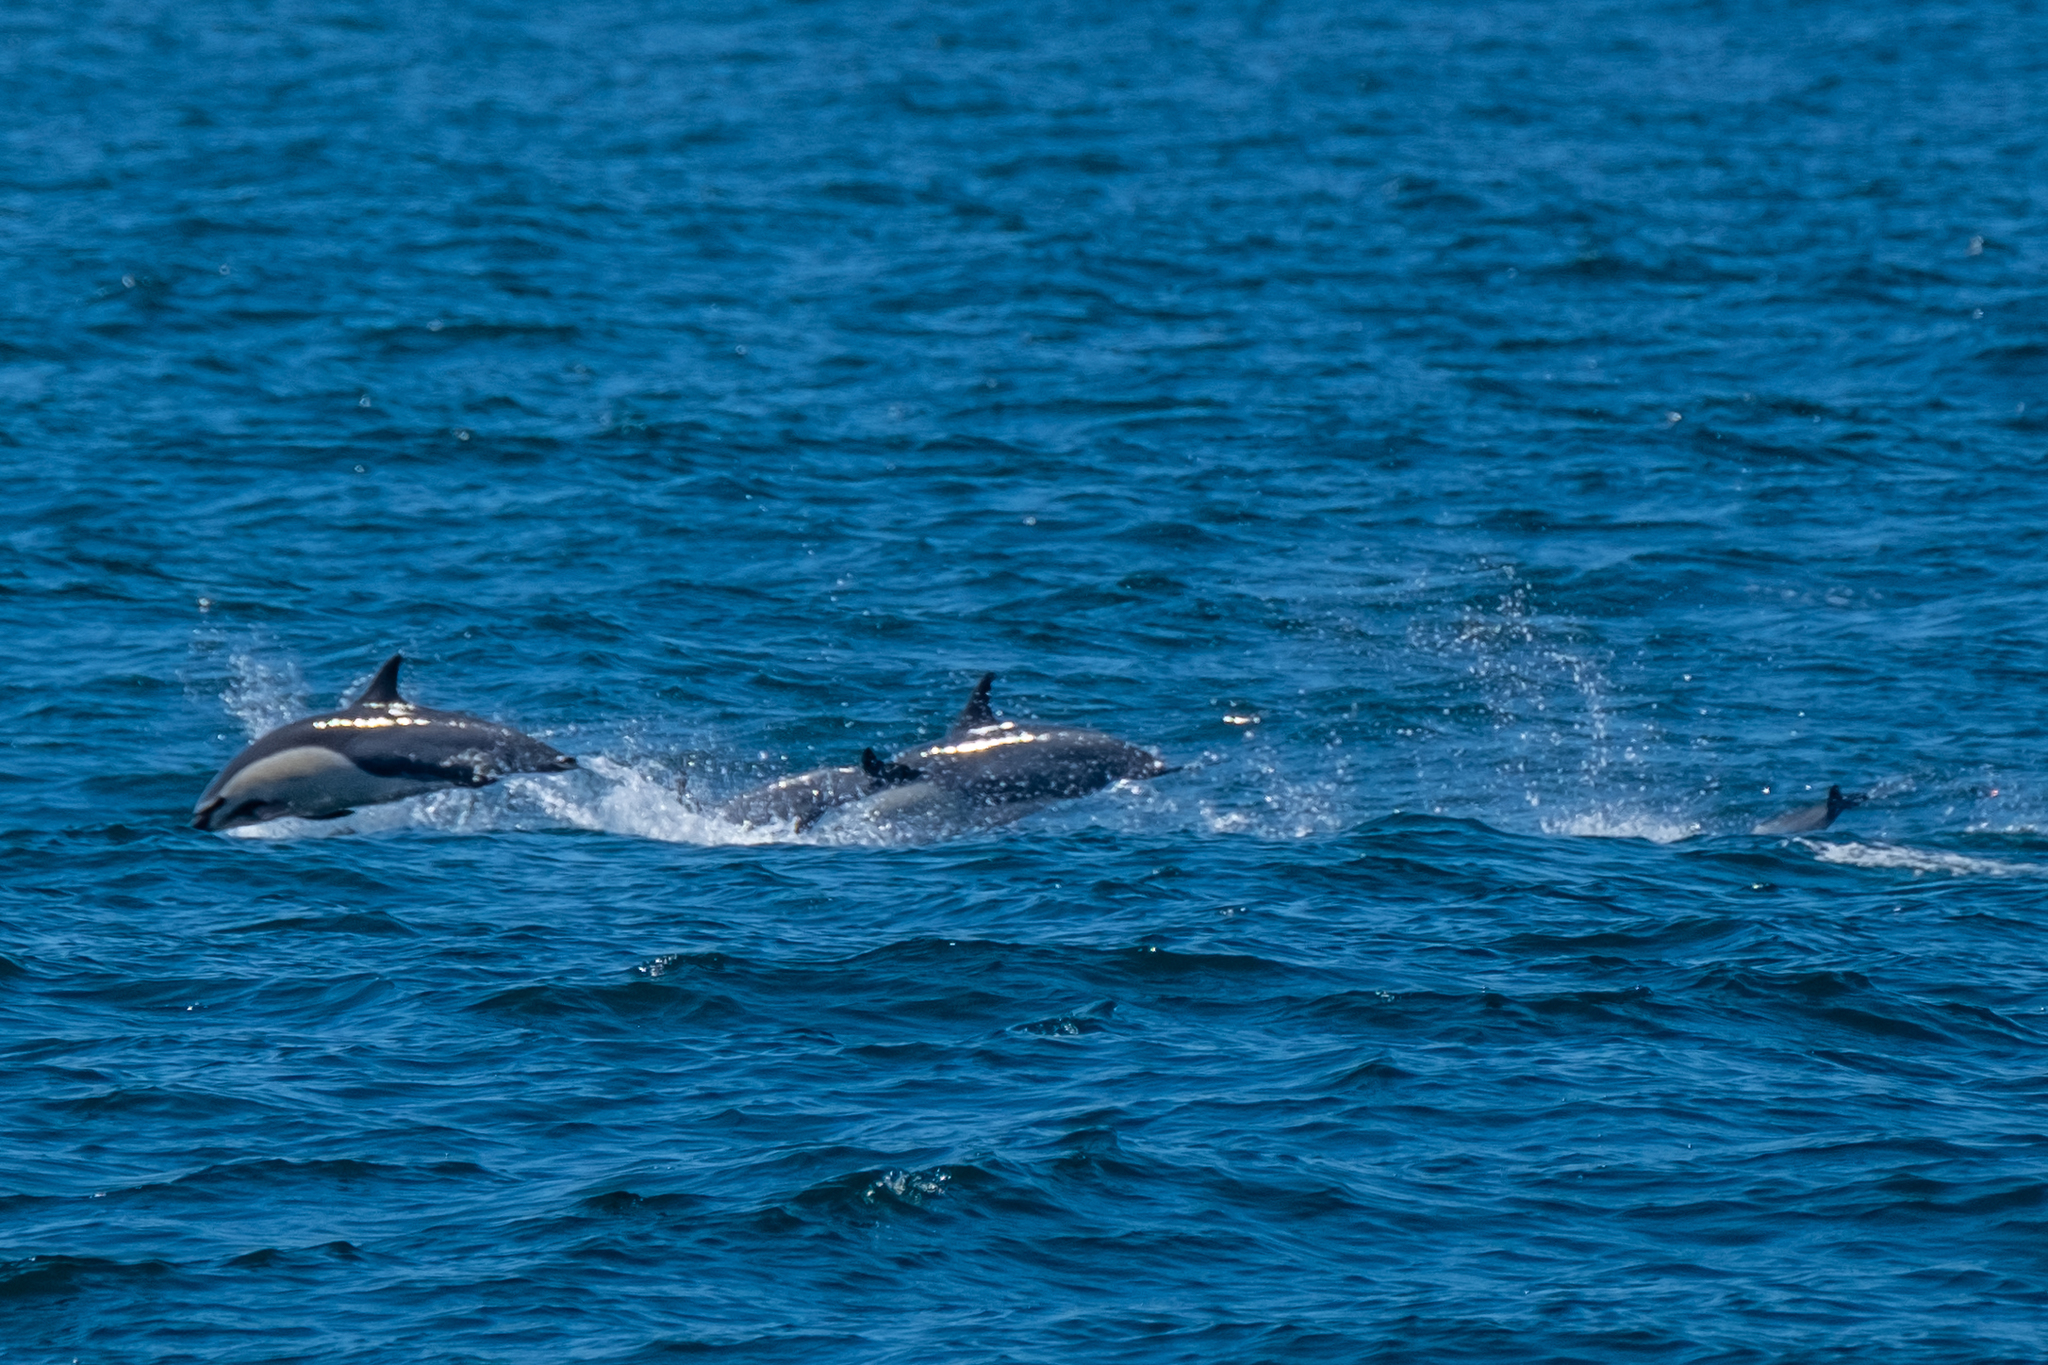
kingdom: Animalia
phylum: Chordata
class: Mammalia
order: Cetacea
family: Delphinidae
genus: Delphinus
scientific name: Delphinus delphis
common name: Common dolphin
